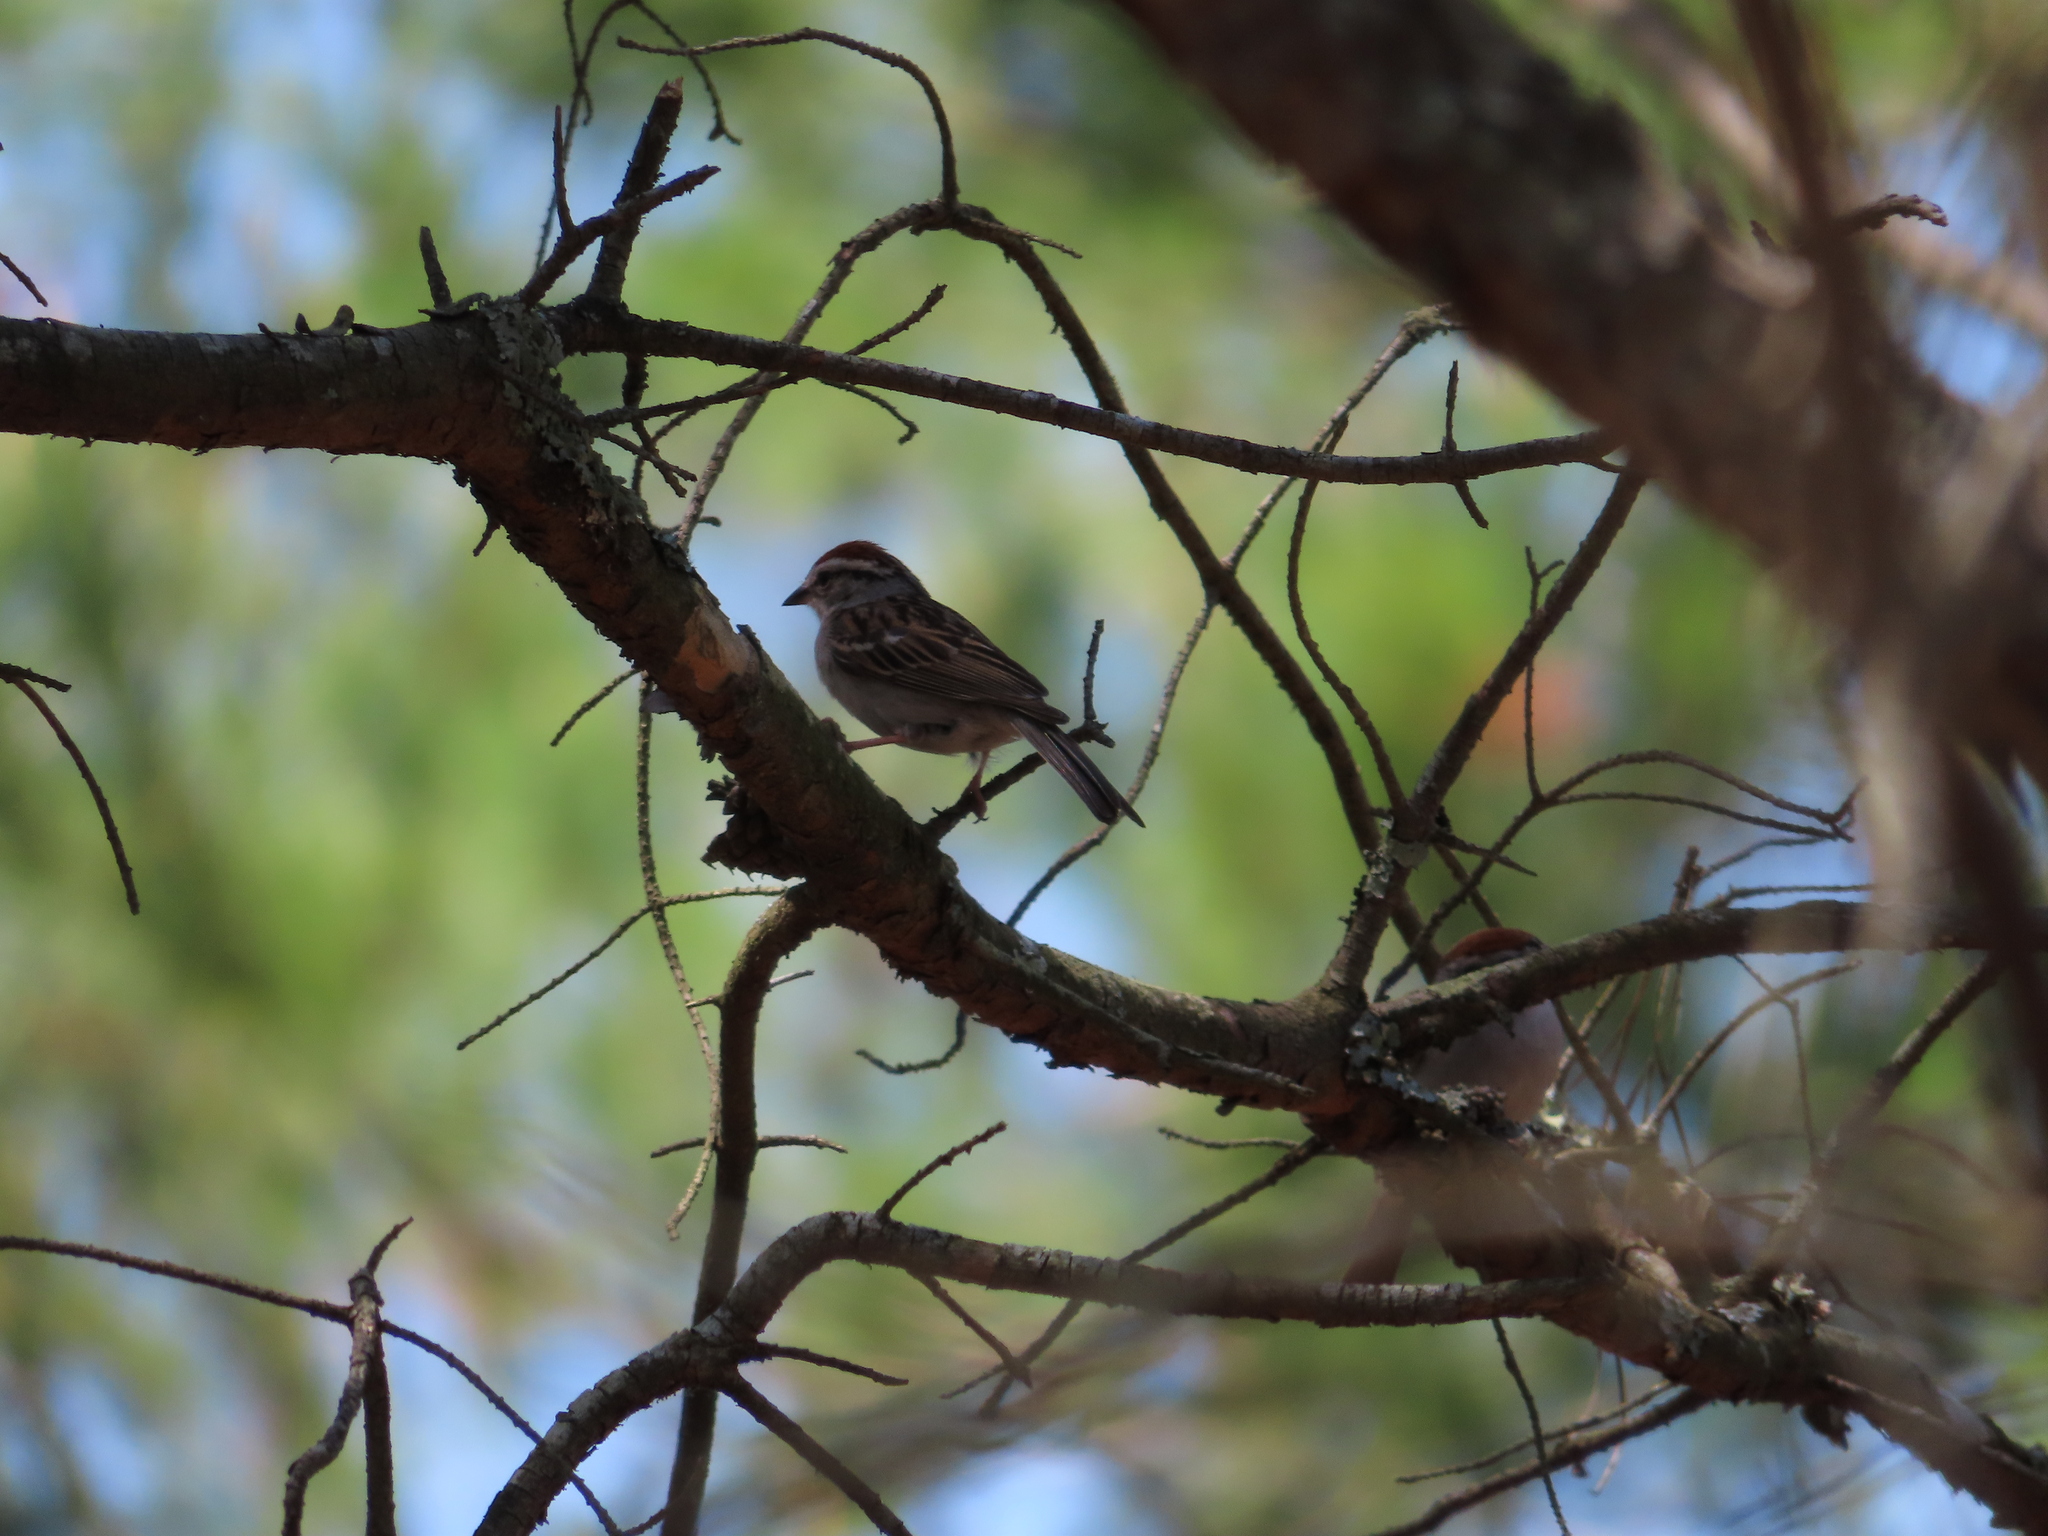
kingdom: Animalia
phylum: Chordata
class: Aves
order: Passeriformes
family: Passerellidae
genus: Spizella
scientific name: Spizella passerina
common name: Chipping sparrow
